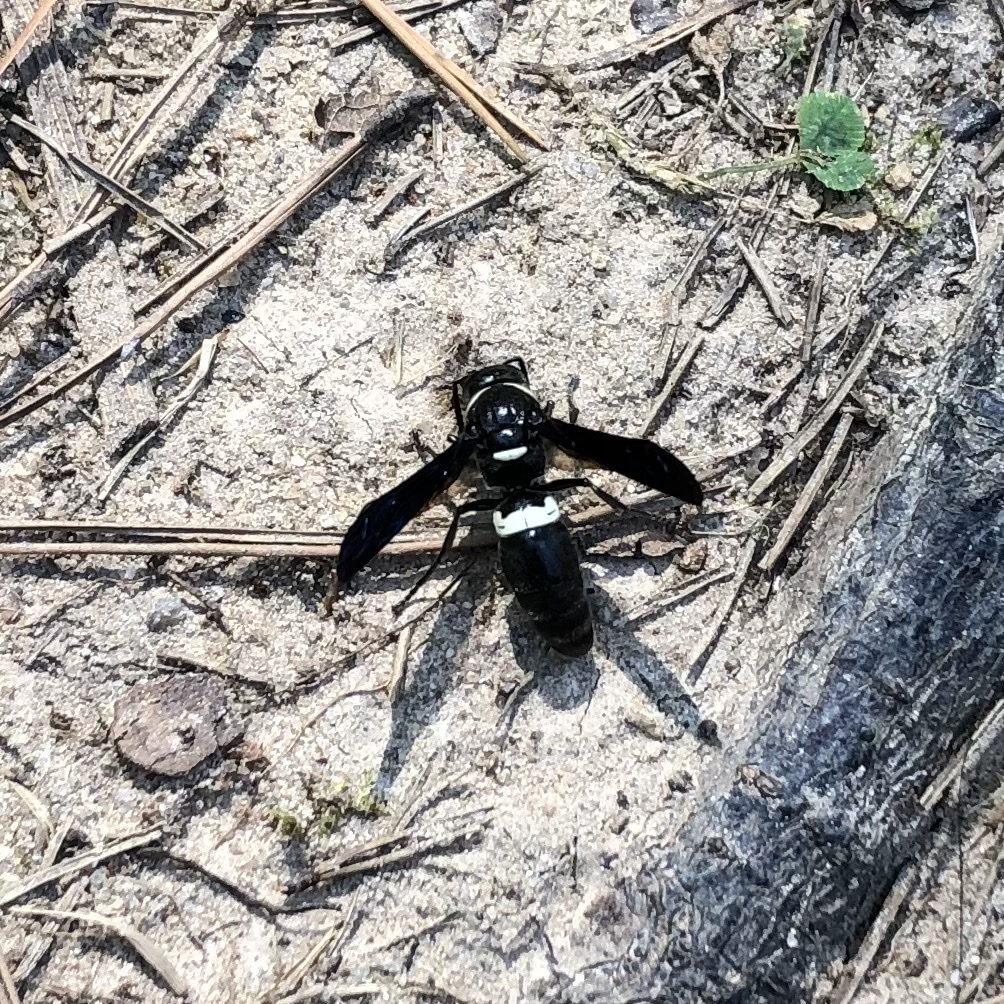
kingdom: Animalia
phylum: Arthropoda
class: Insecta
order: Hymenoptera
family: Eumenidae
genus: Monobia
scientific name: Monobia quadridens
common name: Four-toothed mason wasp
